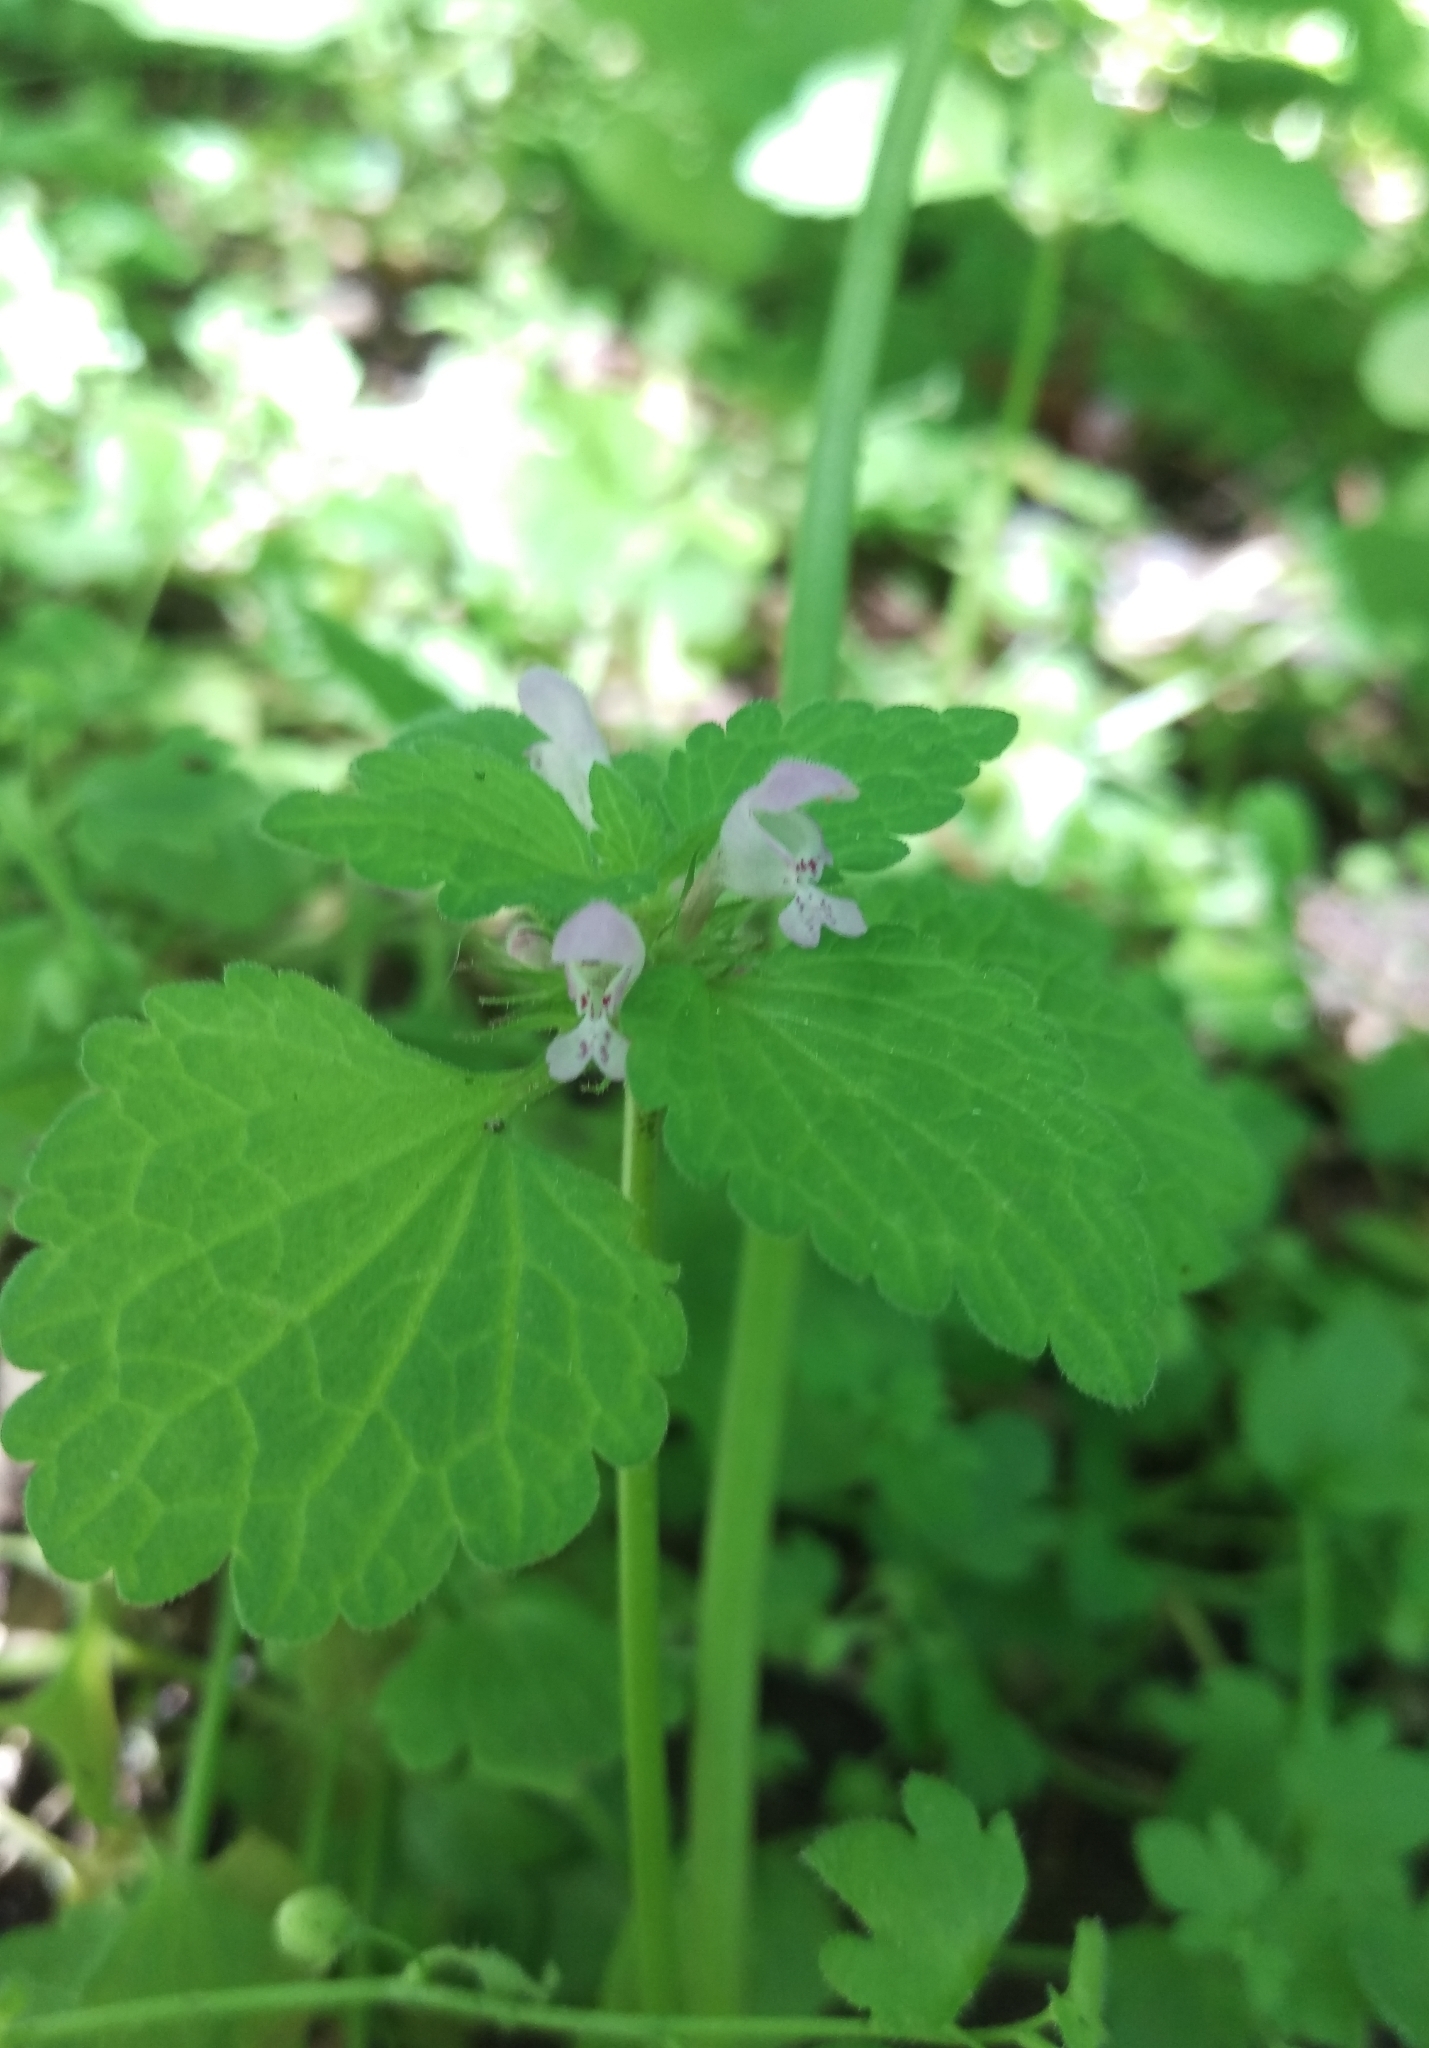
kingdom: Plantae
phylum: Tracheophyta
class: Magnoliopsida
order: Lamiales
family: Lamiaceae
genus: Lamium
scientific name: Lamium purpureum
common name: Red dead-nettle
